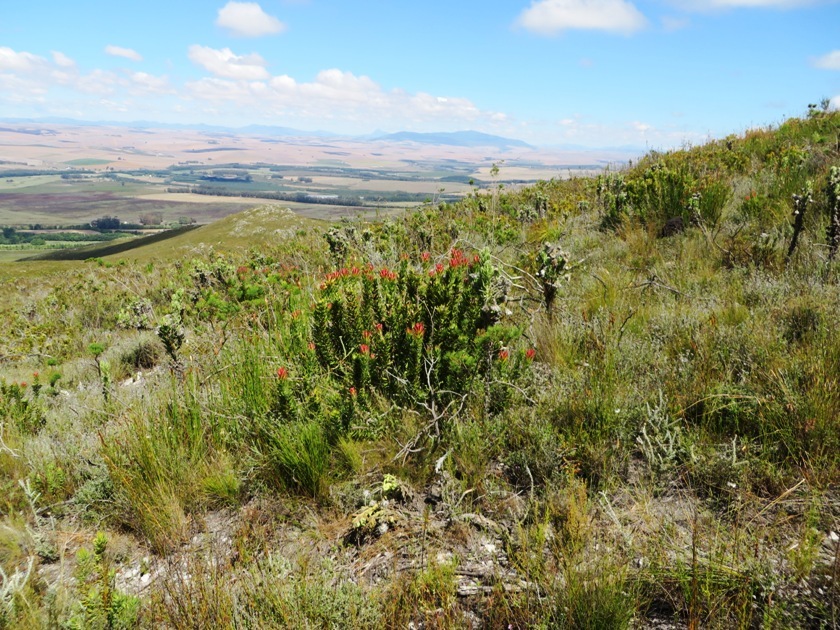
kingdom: Plantae
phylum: Tracheophyta
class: Magnoliopsida
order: Proteales
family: Proteaceae
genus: Mimetes
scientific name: Mimetes cucullatus
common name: Common pagoda
